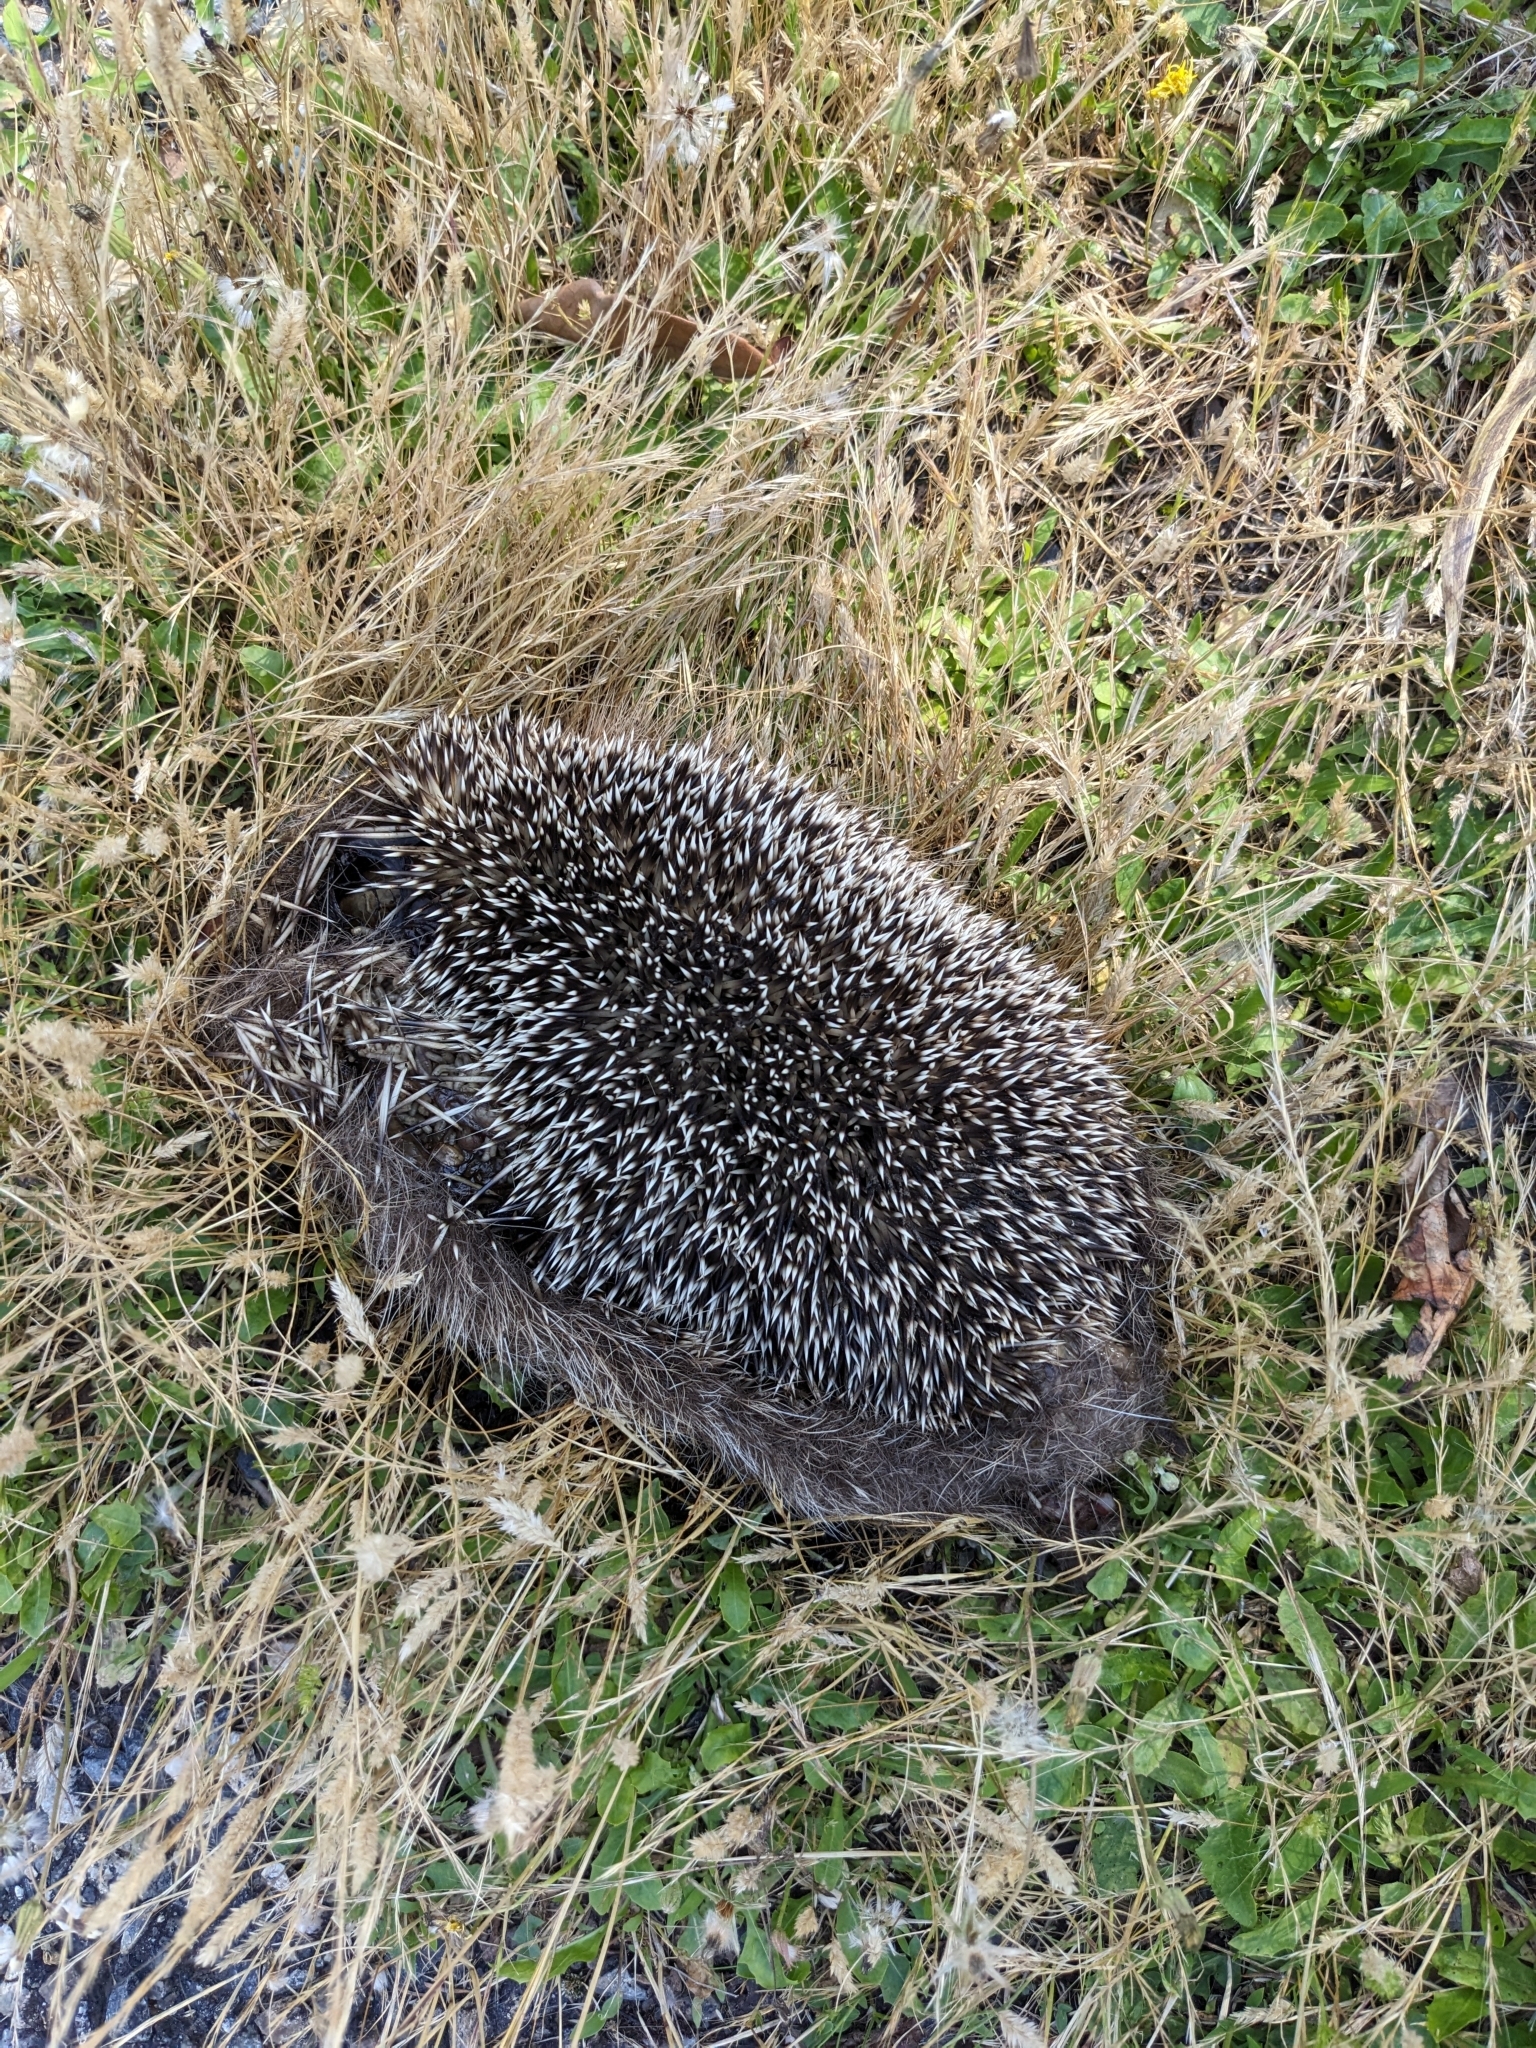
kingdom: Animalia
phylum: Chordata
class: Mammalia
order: Erinaceomorpha
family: Erinaceidae
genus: Erinaceus
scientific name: Erinaceus europaeus
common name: West european hedgehog
